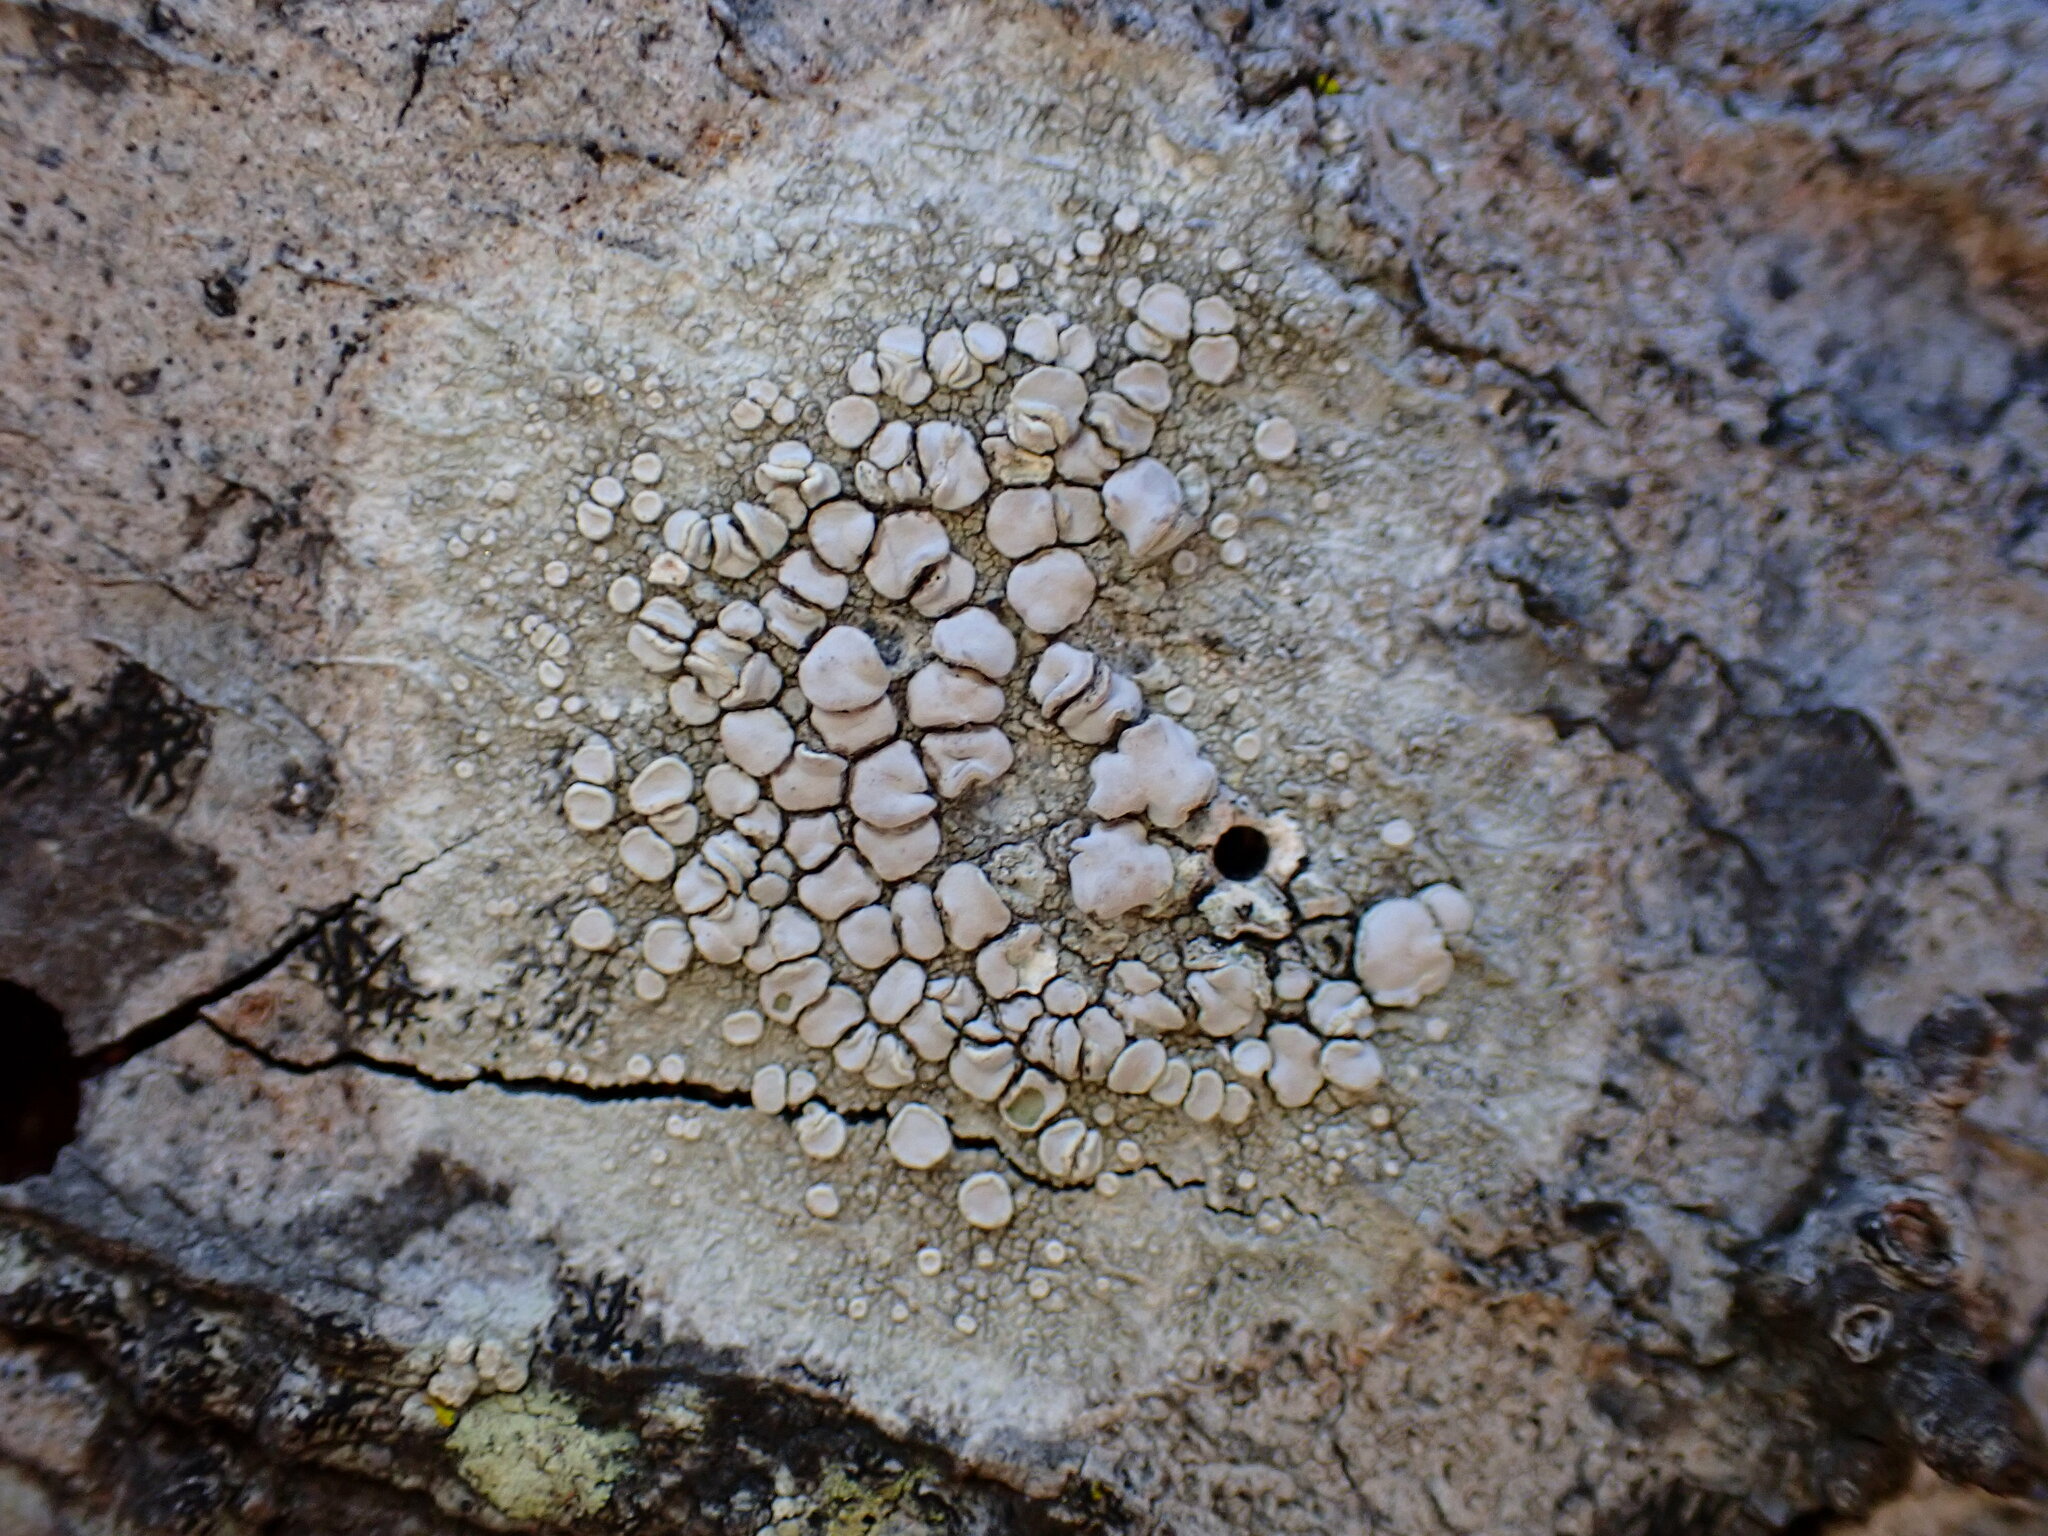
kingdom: Fungi
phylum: Ascomycota
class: Lecanoromycetes
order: Lecanorales
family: Lecanoraceae
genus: Lecanora
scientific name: Lecanora caesiorubella
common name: Frosted rim-lichen
